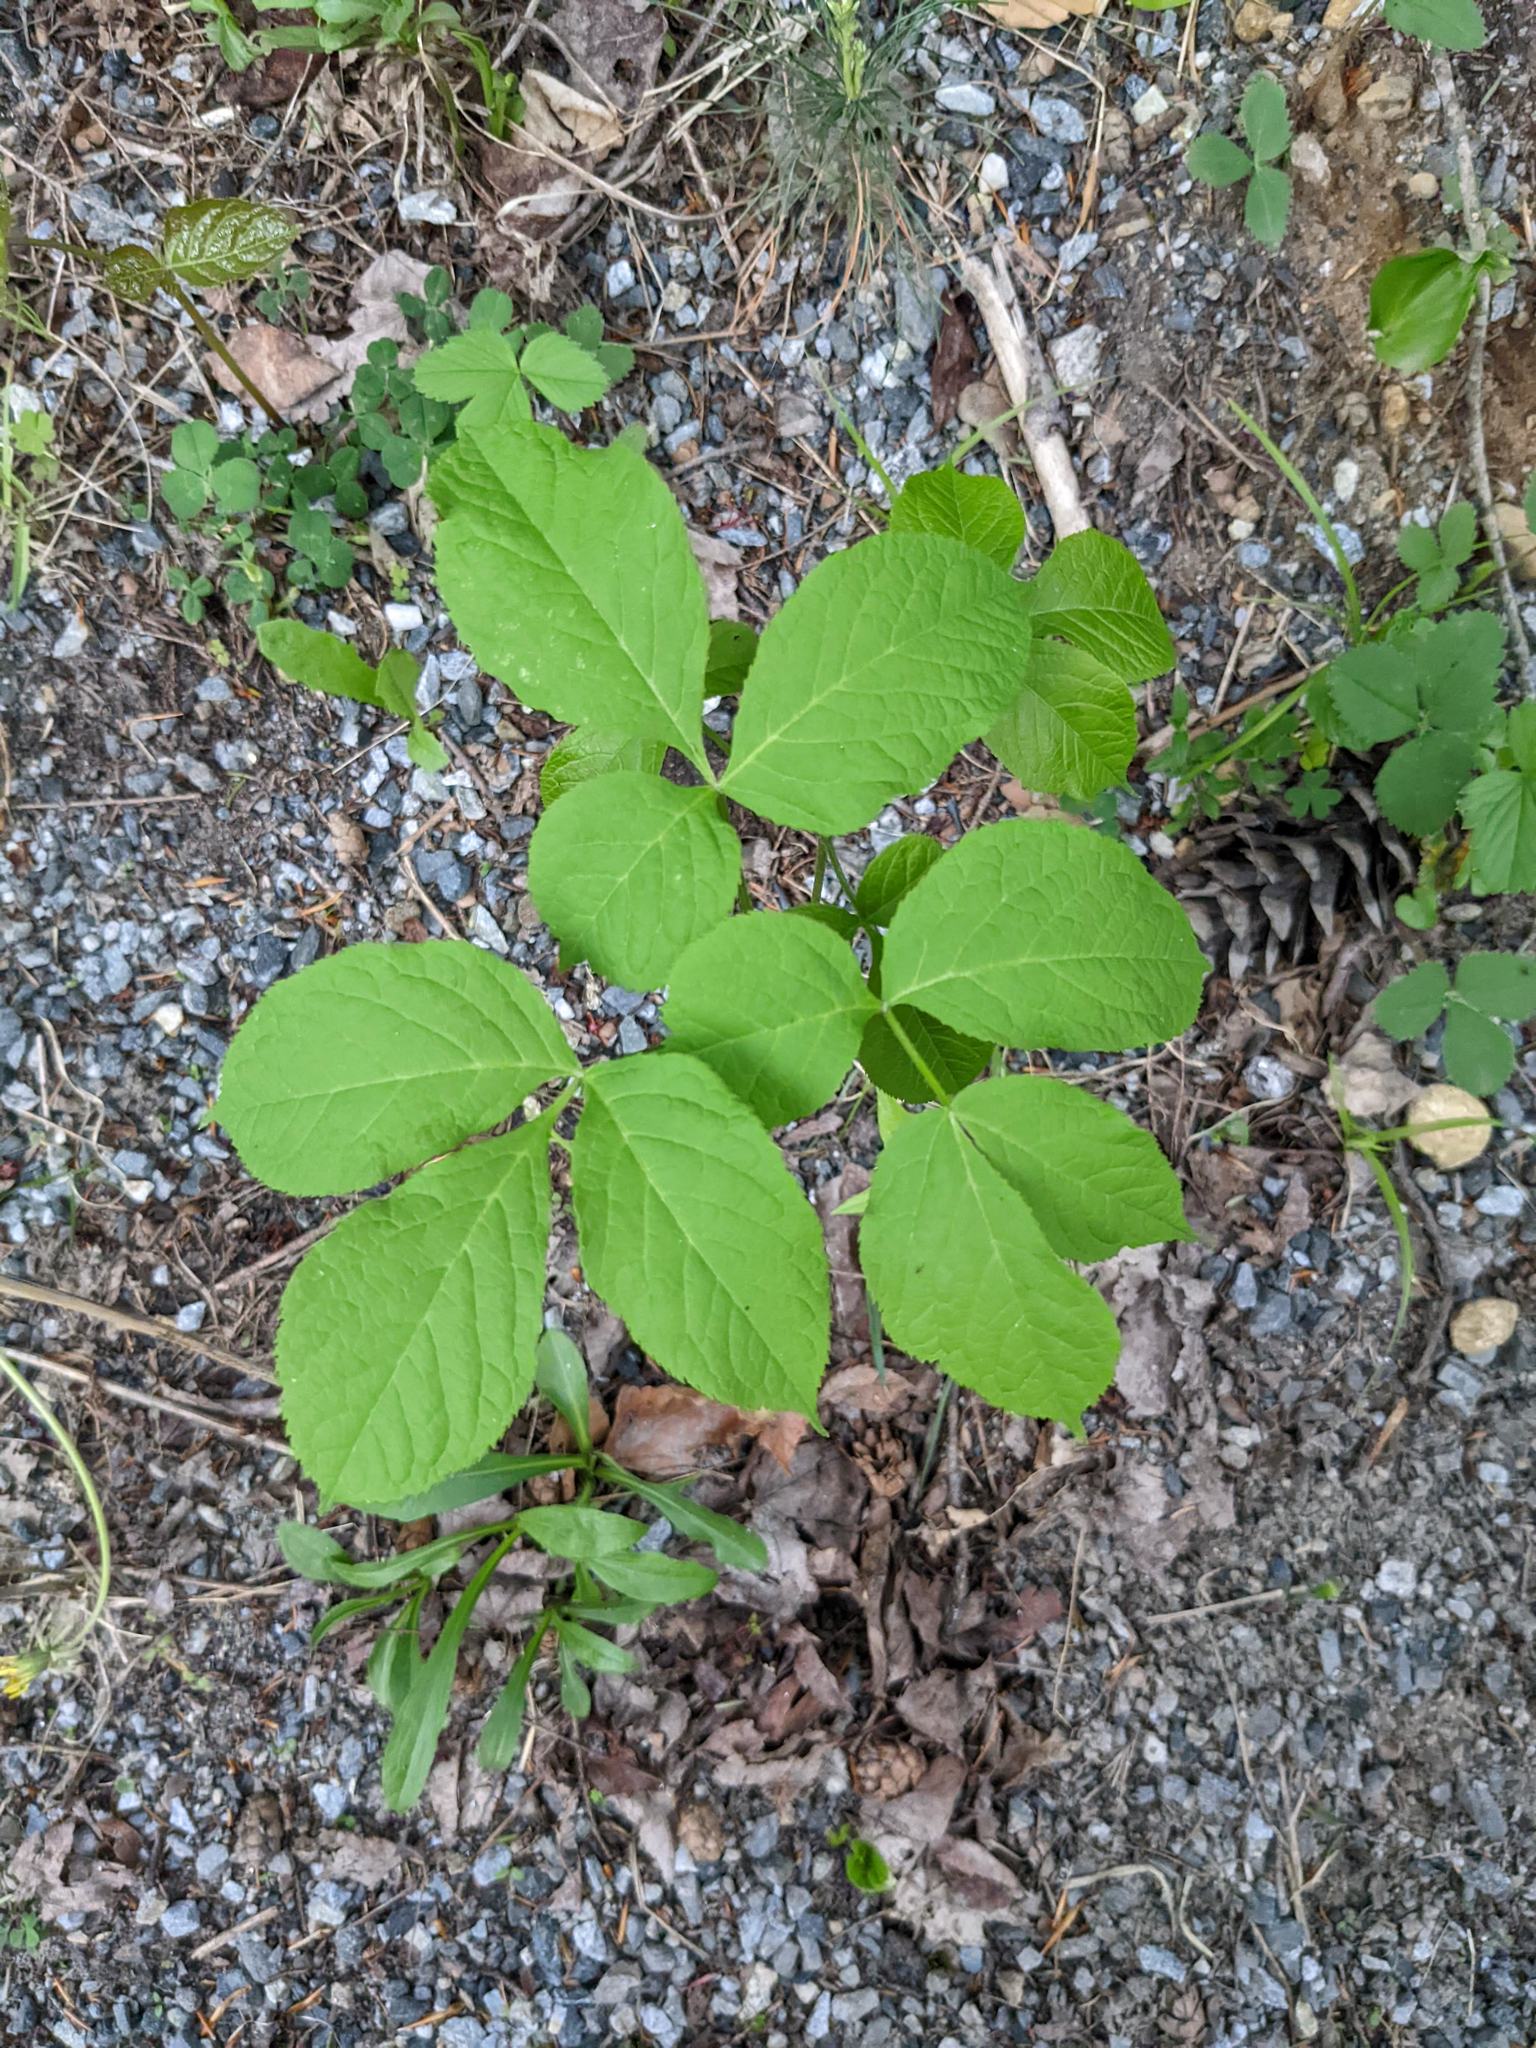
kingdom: Plantae
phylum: Tracheophyta
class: Magnoliopsida
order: Apiales
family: Araliaceae
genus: Aralia
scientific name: Aralia nudicaulis
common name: Wild sarsaparilla
